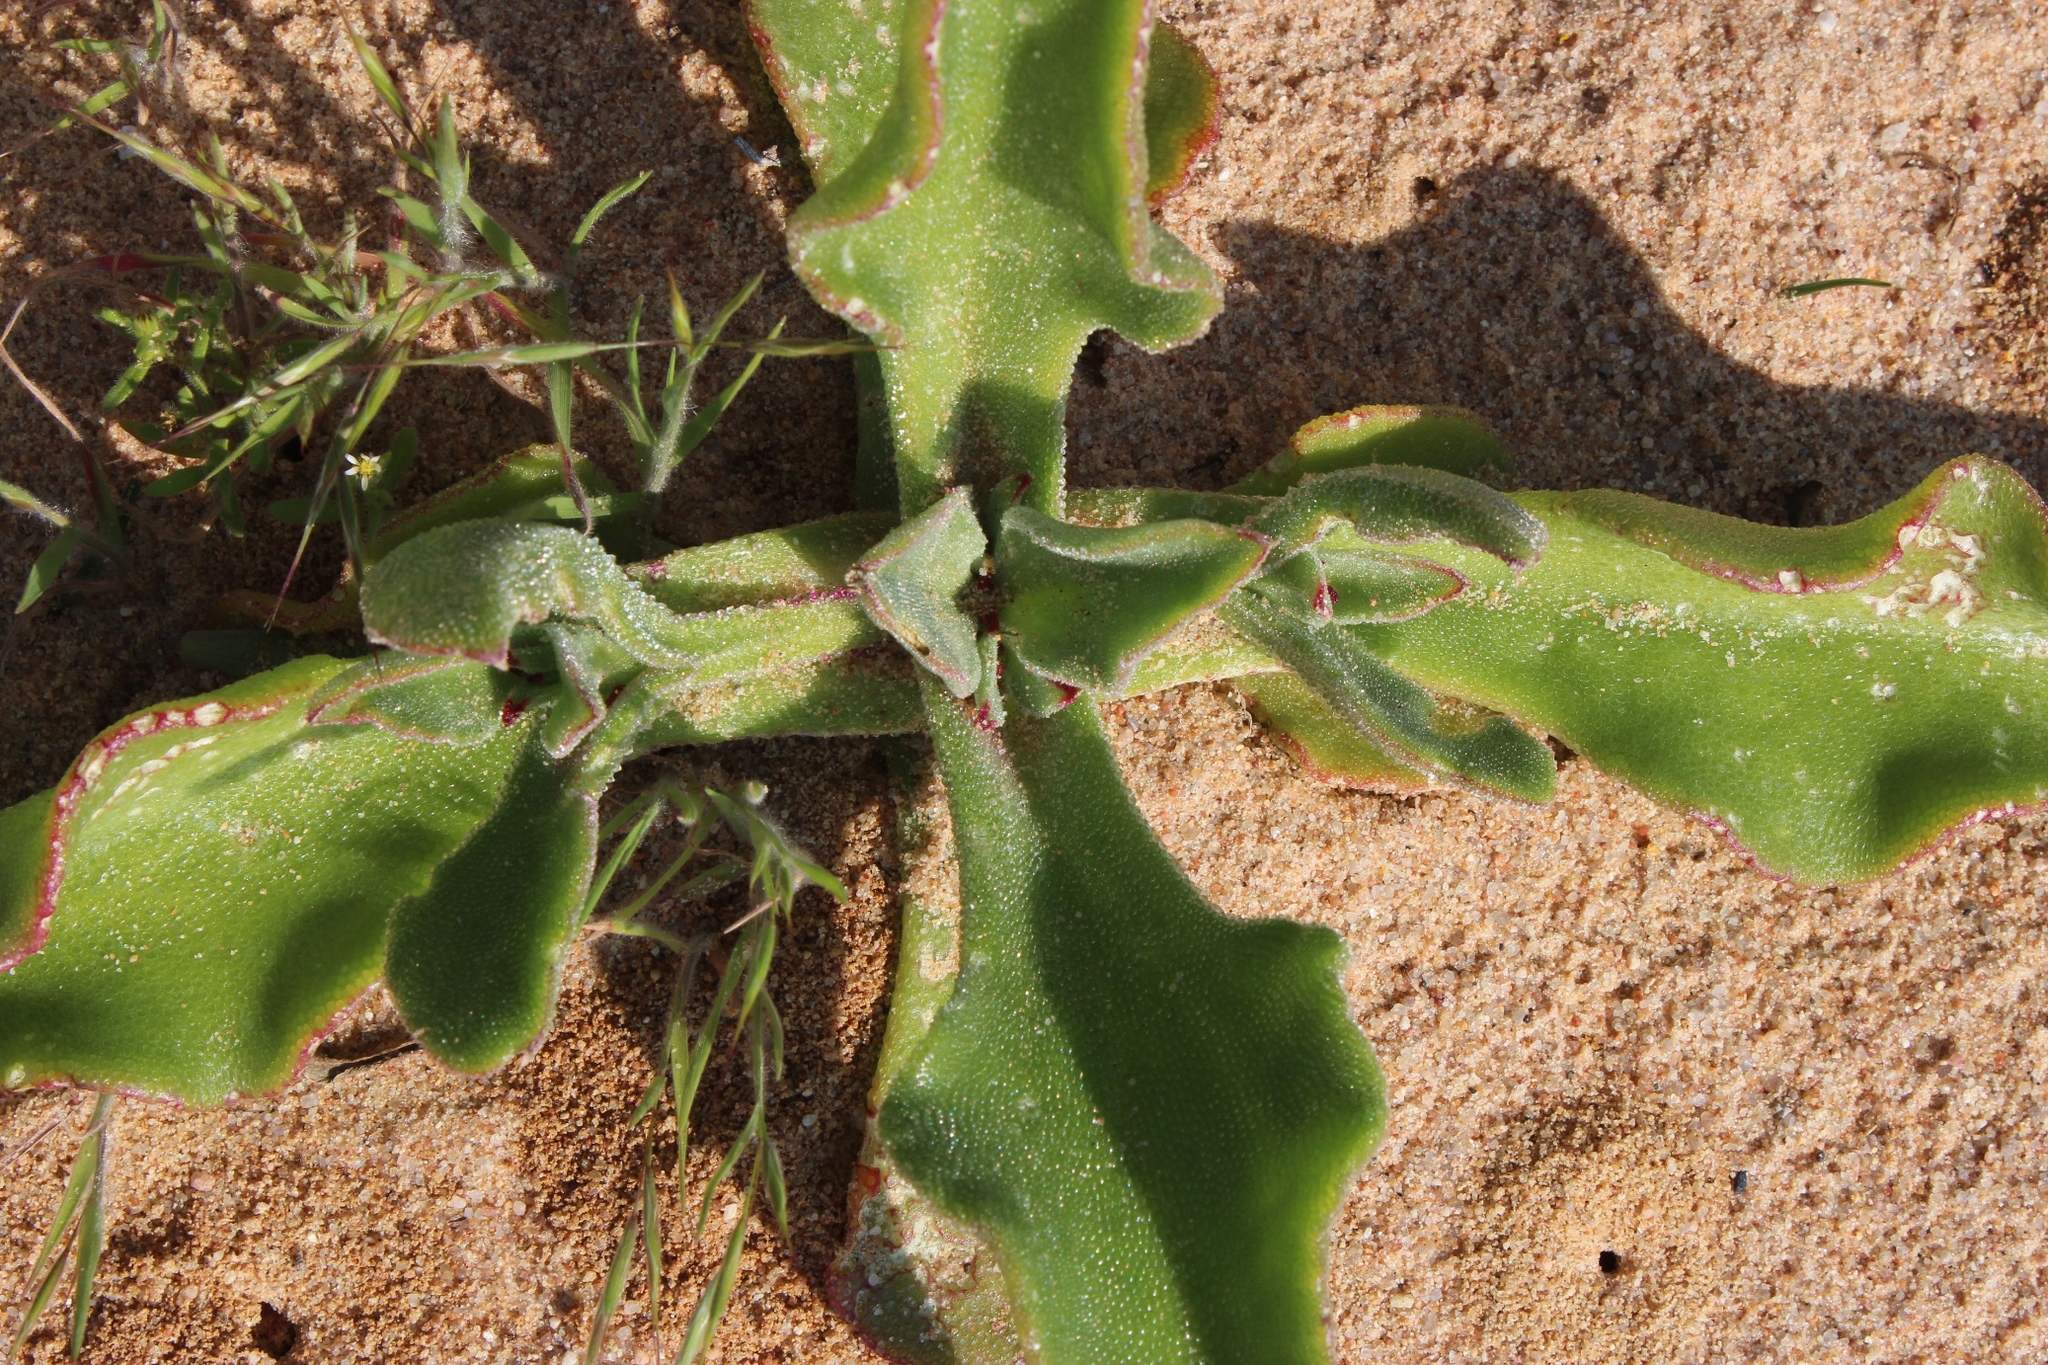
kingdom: Plantae
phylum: Tracheophyta
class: Magnoliopsida
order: Caryophyllales
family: Aizoaceae
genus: Mesembryanthemum
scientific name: Mesembryanthemum guerichianum
